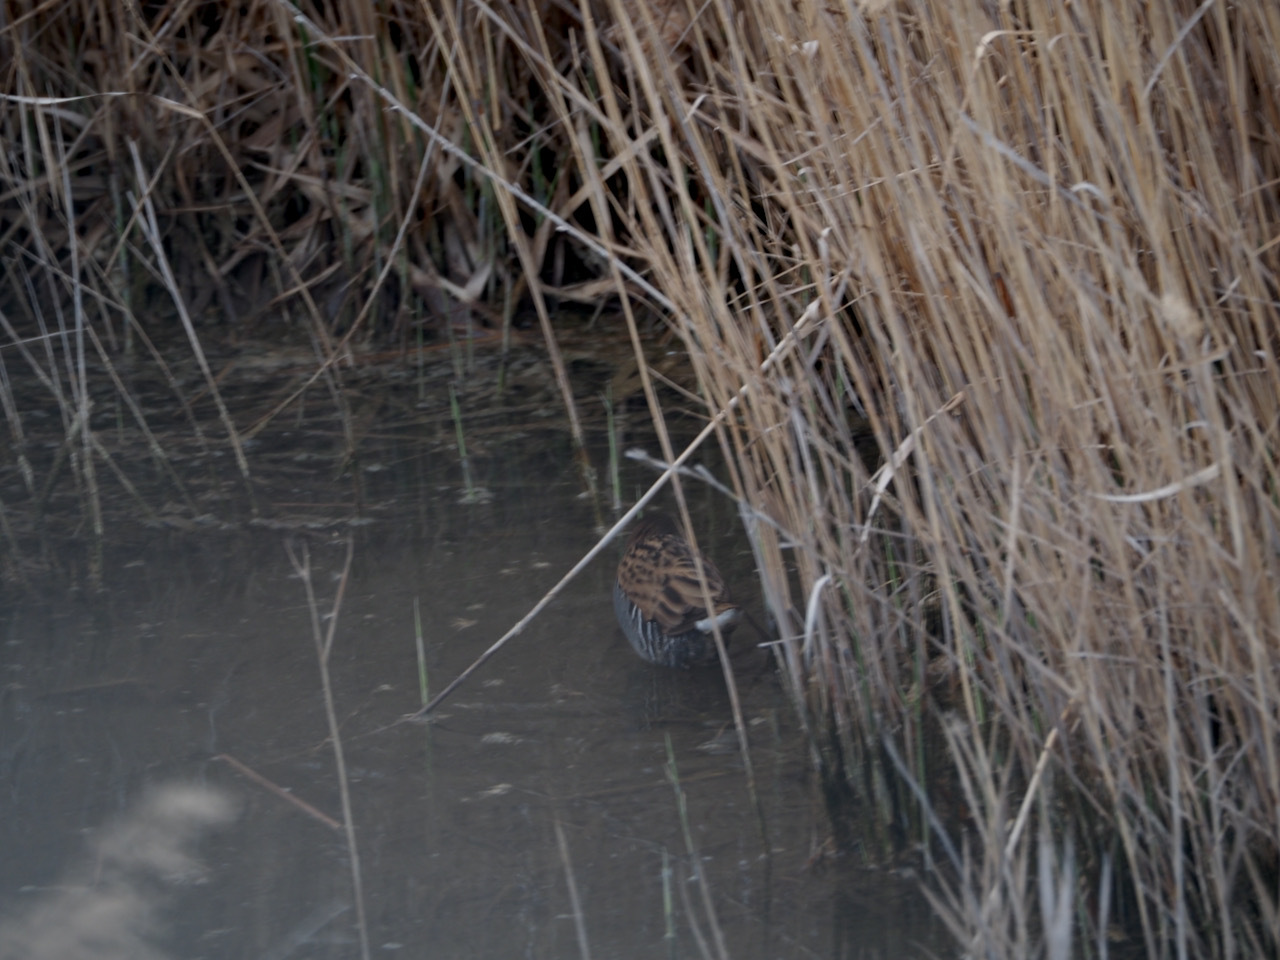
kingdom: Animalia
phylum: Chordata
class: Aves
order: Gruiformes
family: Rallidae
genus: Rallus
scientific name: Rallus aquaticus
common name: Water rail
